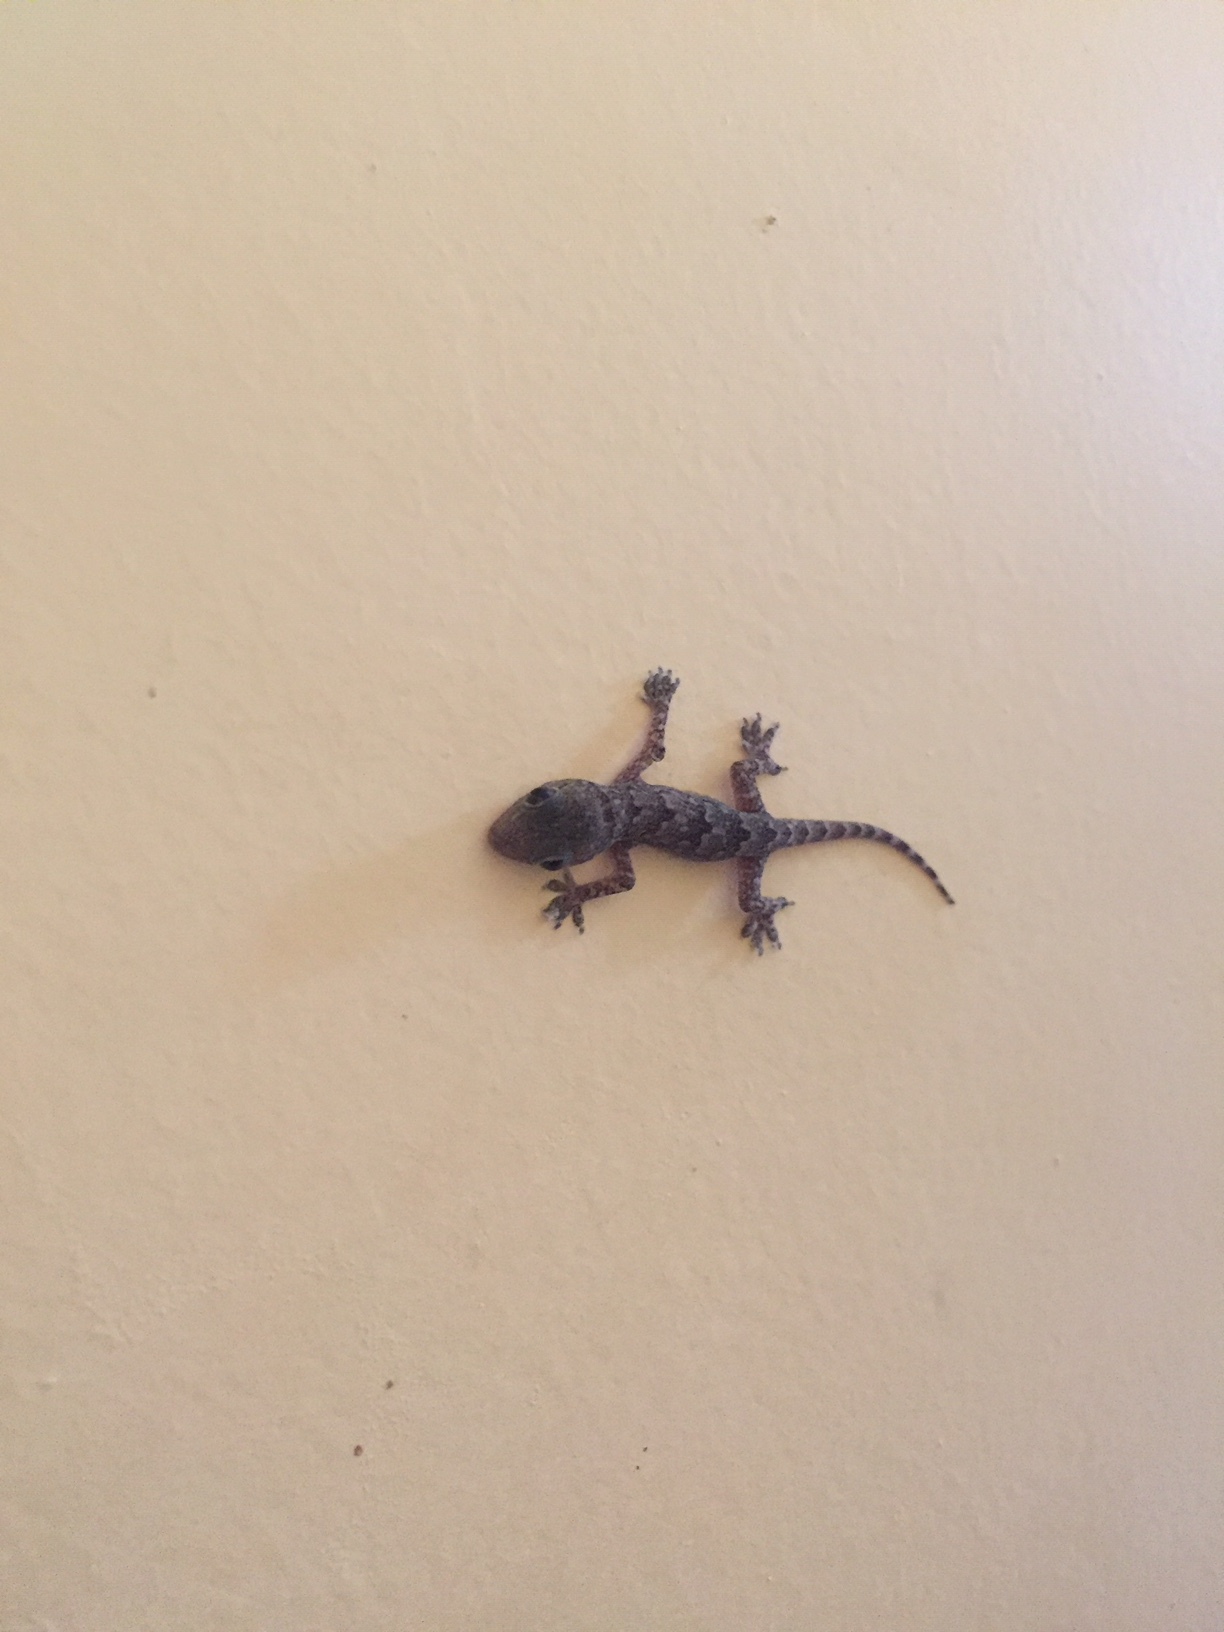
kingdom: Animalia
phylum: Chordata
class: Squamata
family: Gekkonidae
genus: Hemidactylus
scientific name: Hemidactylus flaviviridis
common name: Northern house gecko
